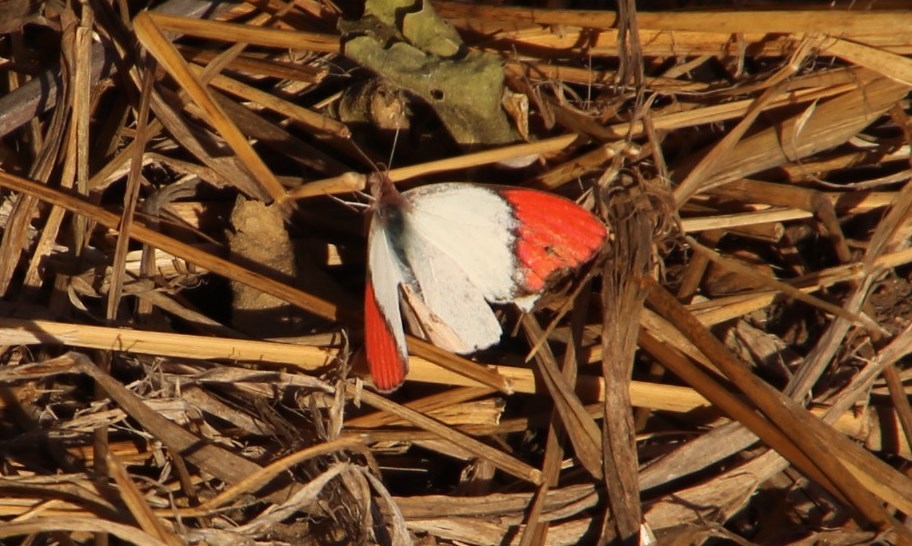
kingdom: Animalia
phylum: Arthropoda
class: Insecta
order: Lepidoptera
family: Pieridae
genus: Colotis
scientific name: Colotis annae
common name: Scarlet tip
